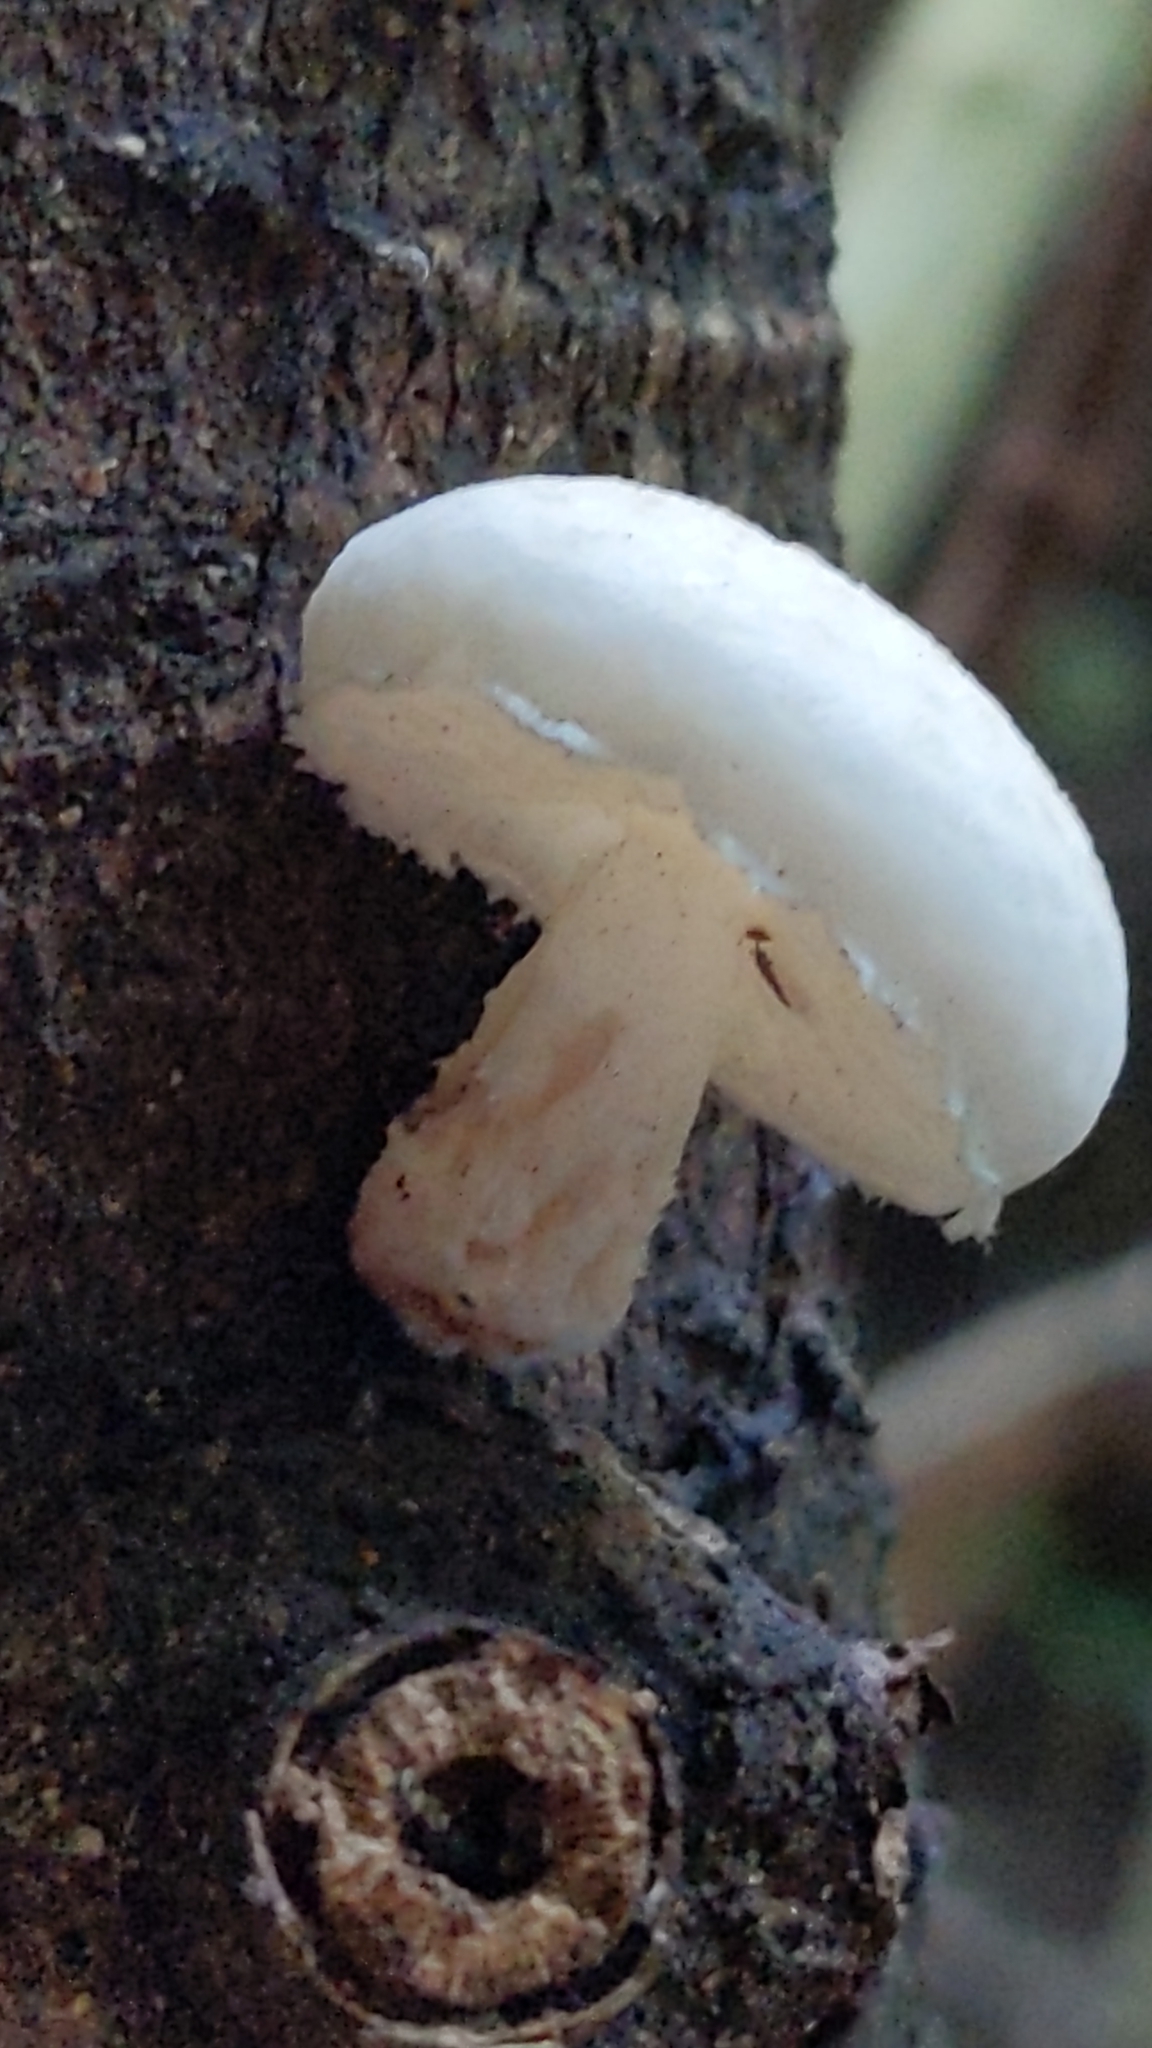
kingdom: Fungi
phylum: Basidiomycota
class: Agaricomycetes
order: Agaricales
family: Physalacriaceae
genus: Oudemansiella
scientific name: Oudemansiella australis
